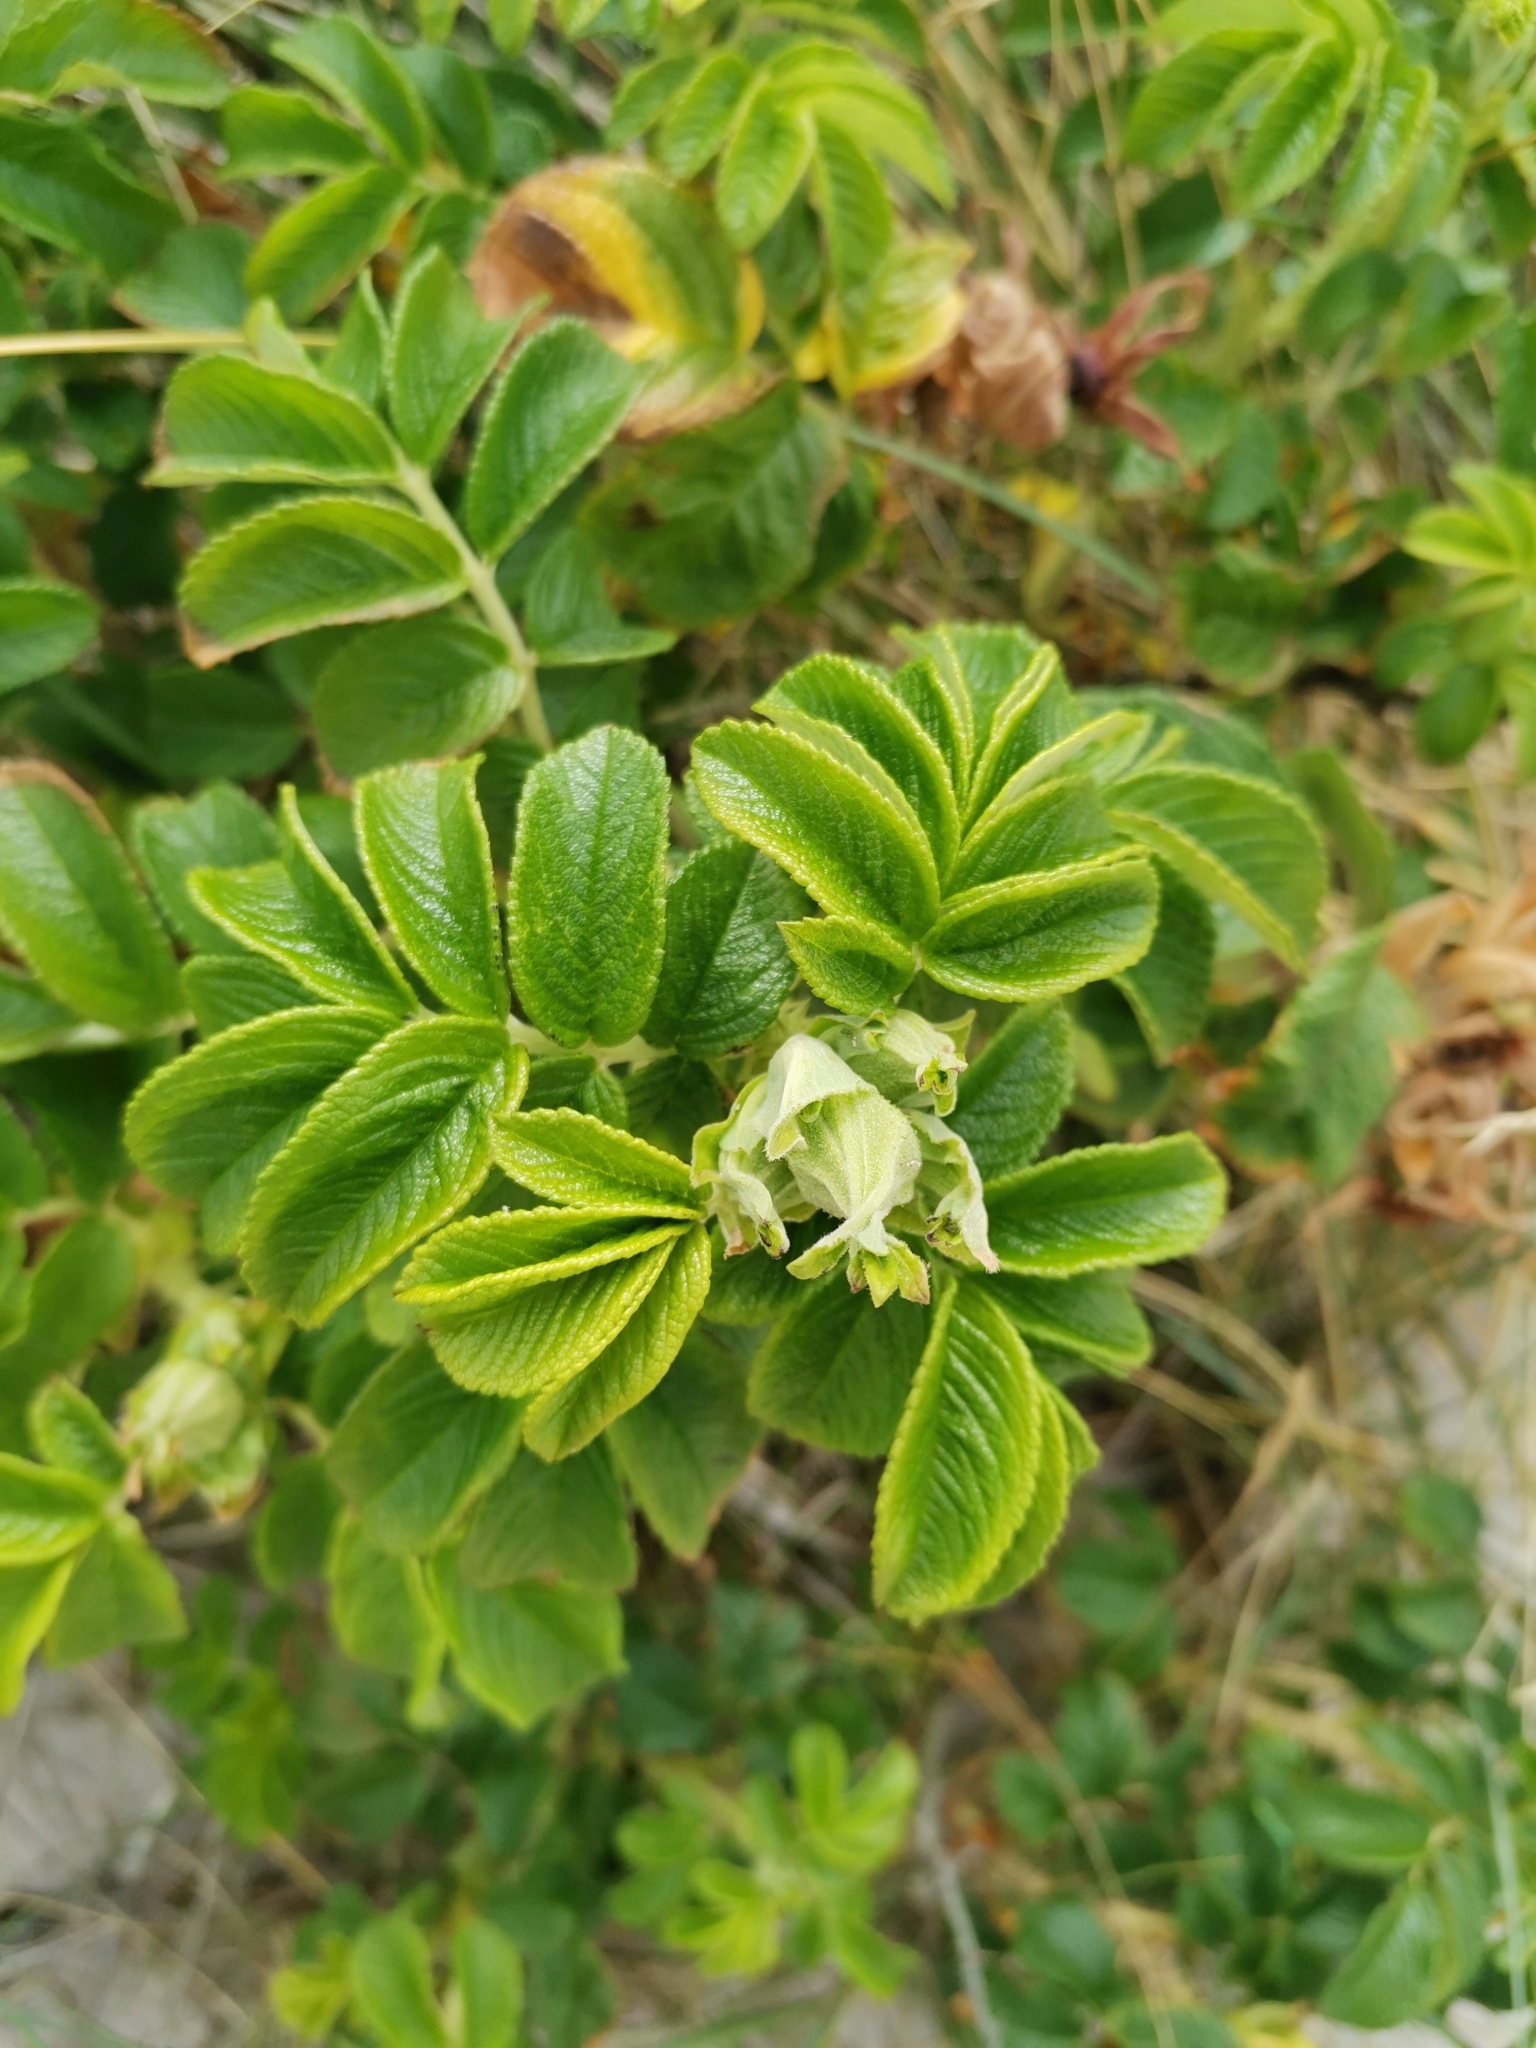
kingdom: Plantae
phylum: Tracheophyta
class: Magnoliopsida
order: Rosales
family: Rosaceae
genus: Rosa
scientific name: Rosa rugosa
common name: Japanese rose
